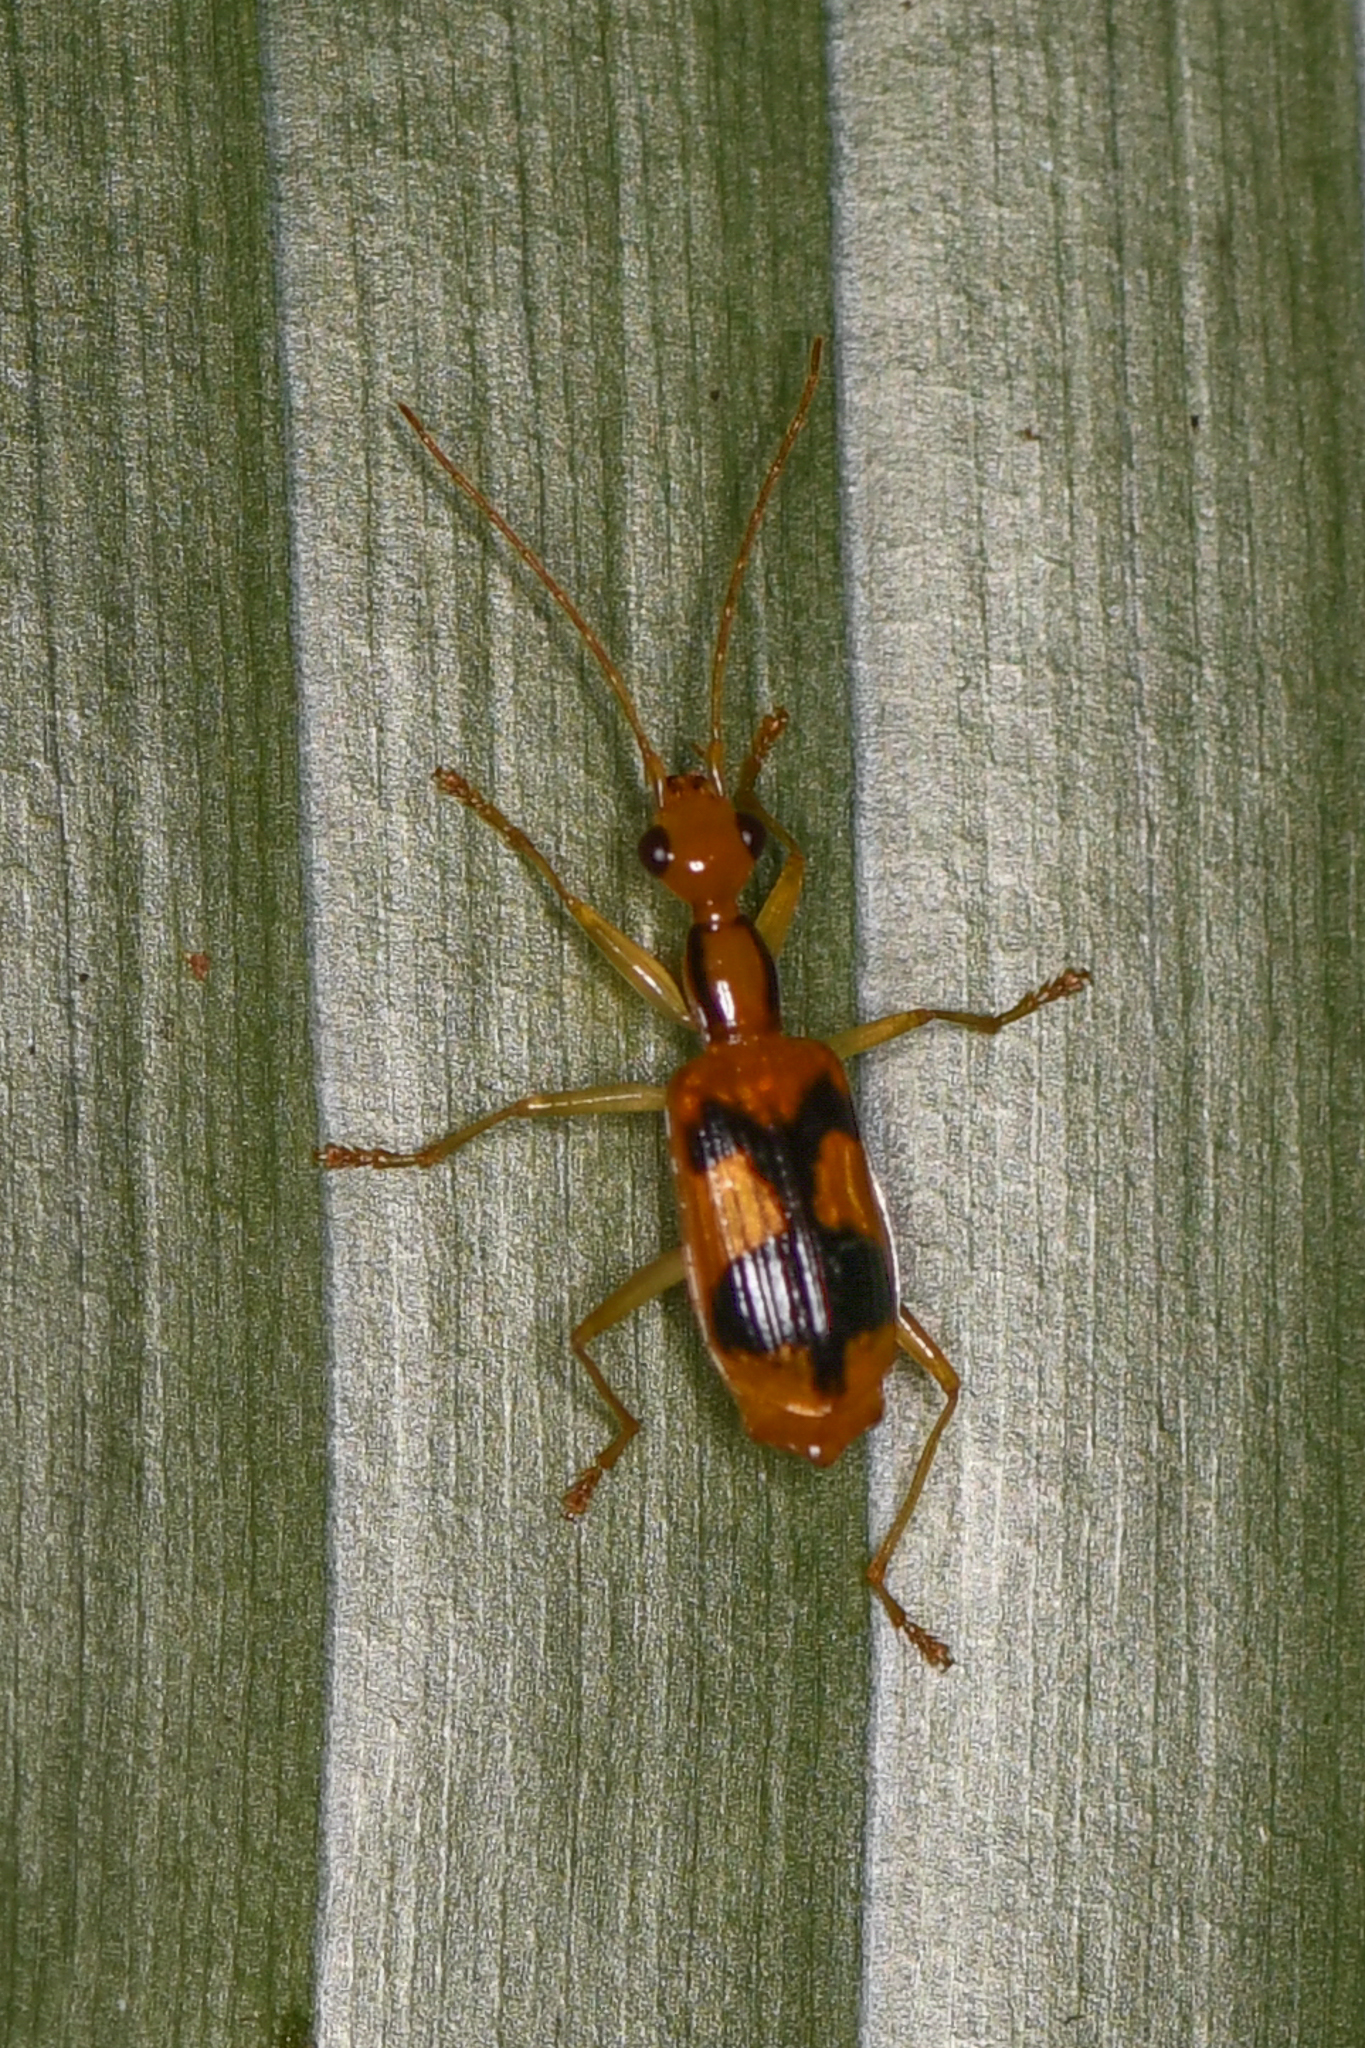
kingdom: Animalia
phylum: Arthropoda
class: Insecta
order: Coleoptera
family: Carabidae
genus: Calophaena
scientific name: Calophaena costaricensis
